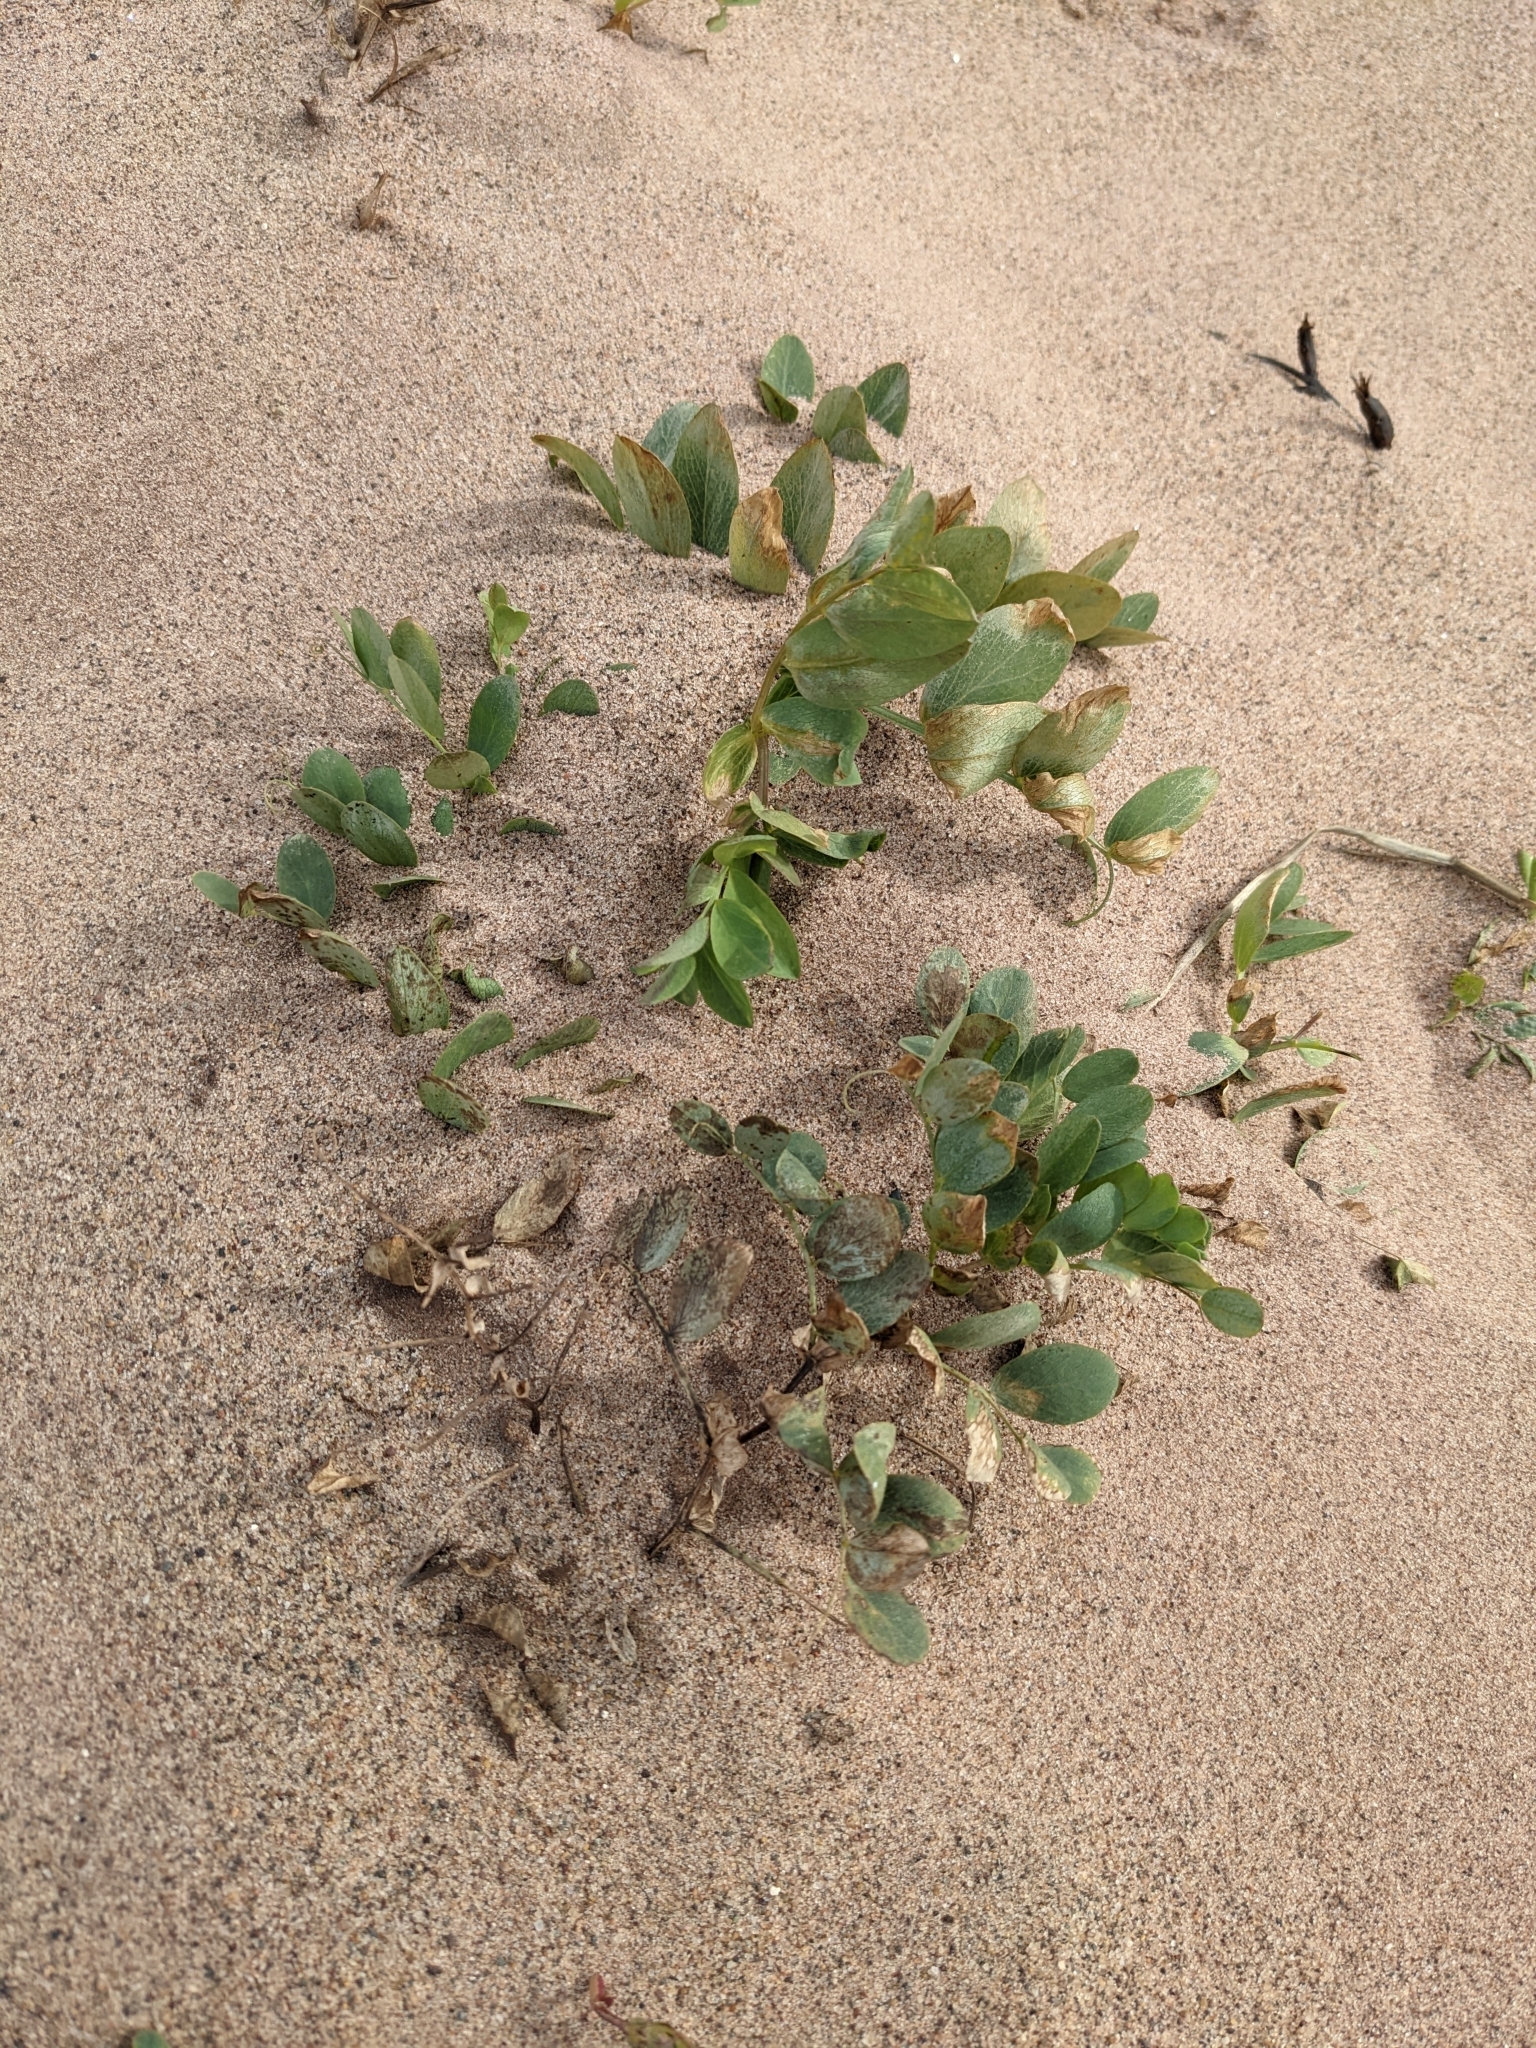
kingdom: Plantae
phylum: Tracheophyta
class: Magnoliopsida
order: Fabales
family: Fabaceae
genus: Lathyrus
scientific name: Lathyrus japonicus
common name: Sea pea
